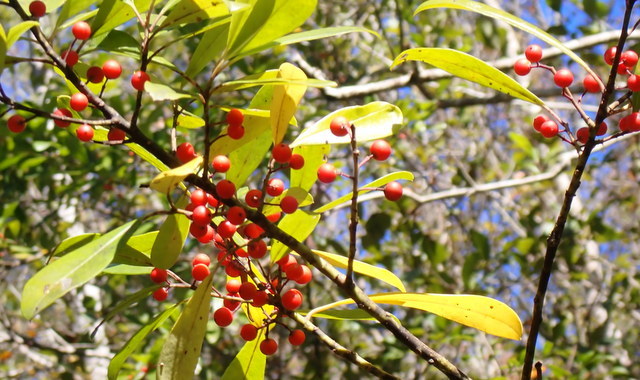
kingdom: Plantae
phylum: Tracheophyta
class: Magnoliopsida
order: Aquifoliales
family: Aquifoliaceae
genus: Ilex
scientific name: Ilex cassine
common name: Dahoon
